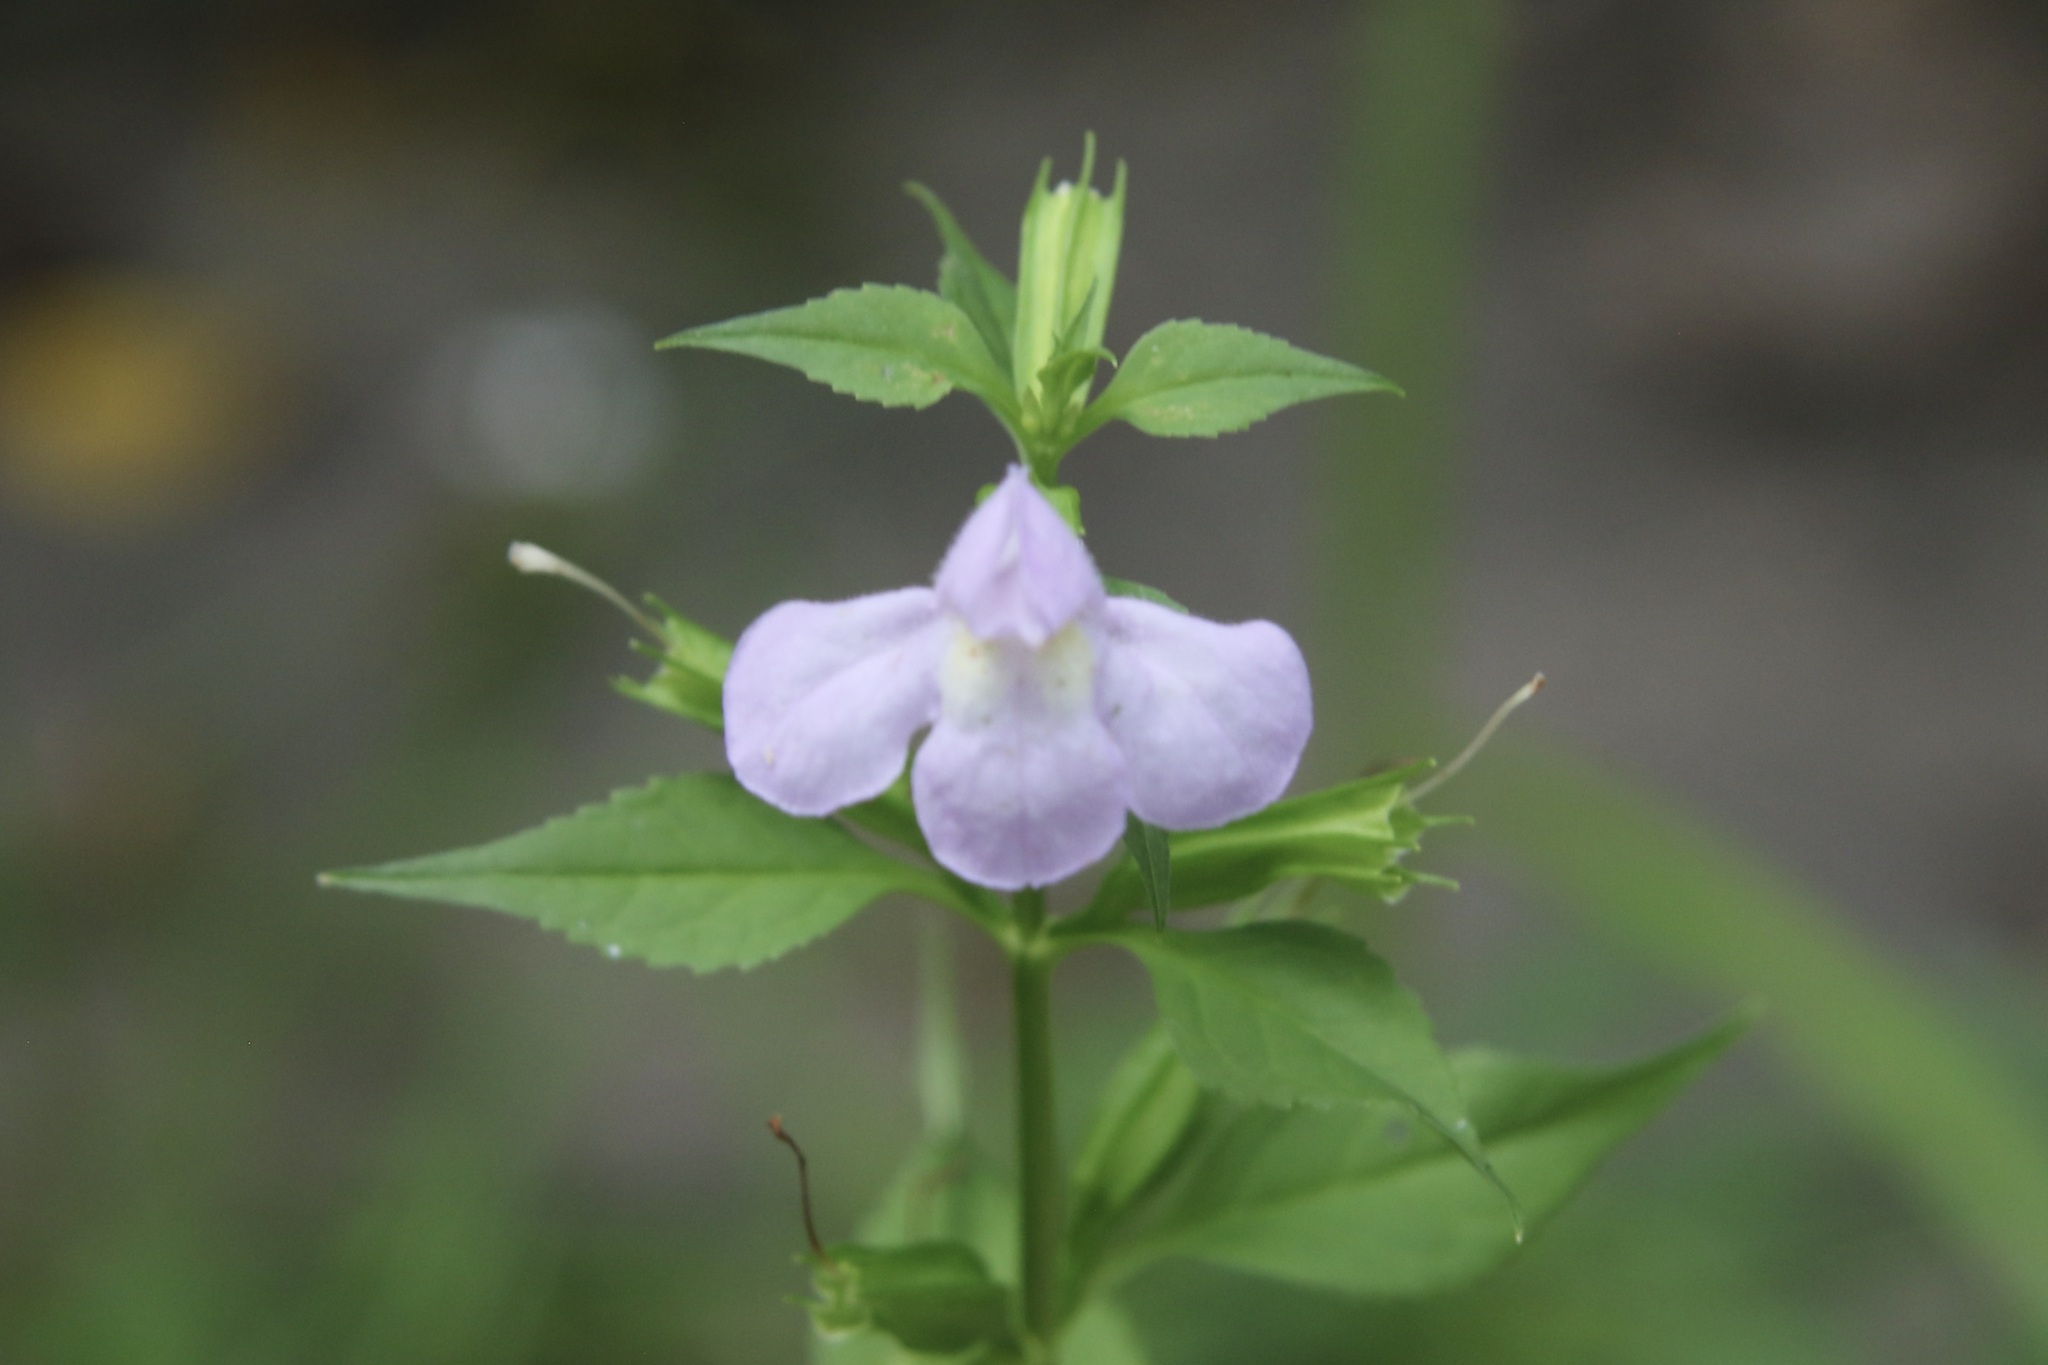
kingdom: Plantae
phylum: Tracheophyta
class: Magnoliopsida
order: Lamiales
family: Phrymaceae
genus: Mimulus
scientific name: Mimulus alatus
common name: Sharp-wing monkey-flower
